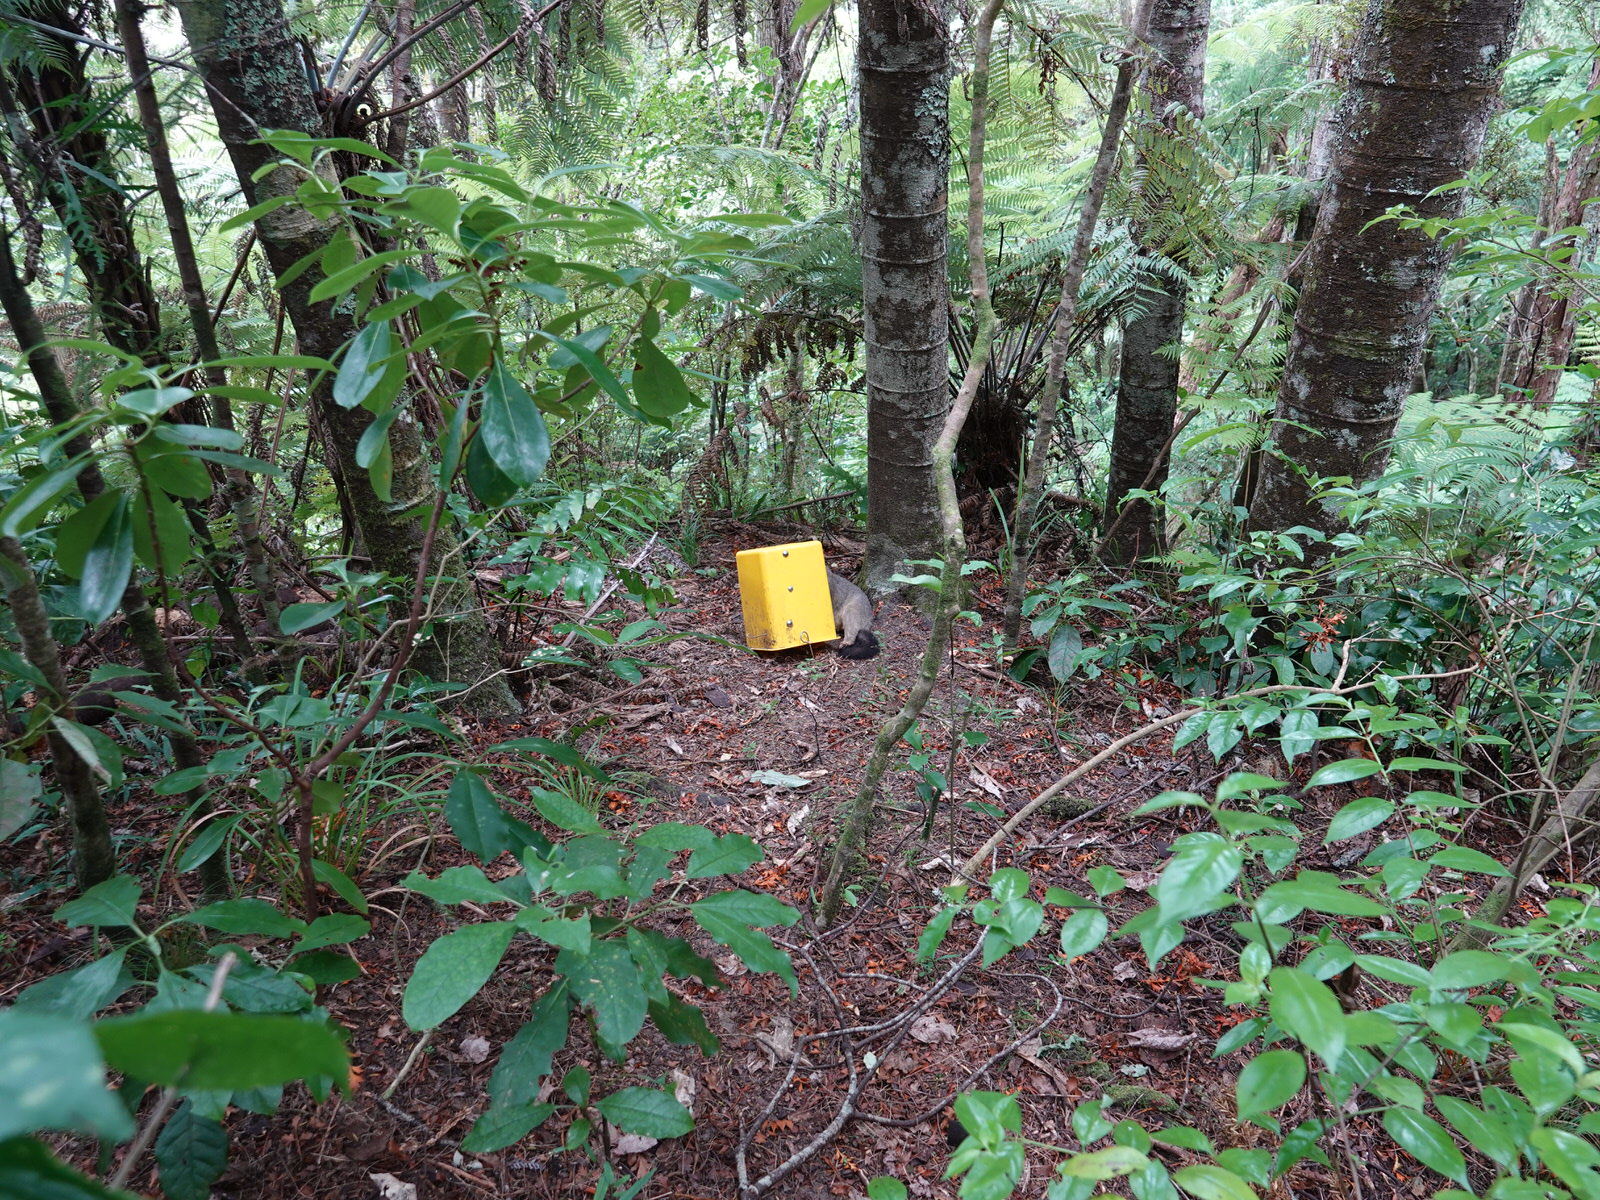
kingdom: Animalia
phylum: Chordata
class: Mammalia
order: Diprotodontia
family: Phalangeridae
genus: Trichosurus
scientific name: Trichosurus vulpecula
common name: Common brushtail
